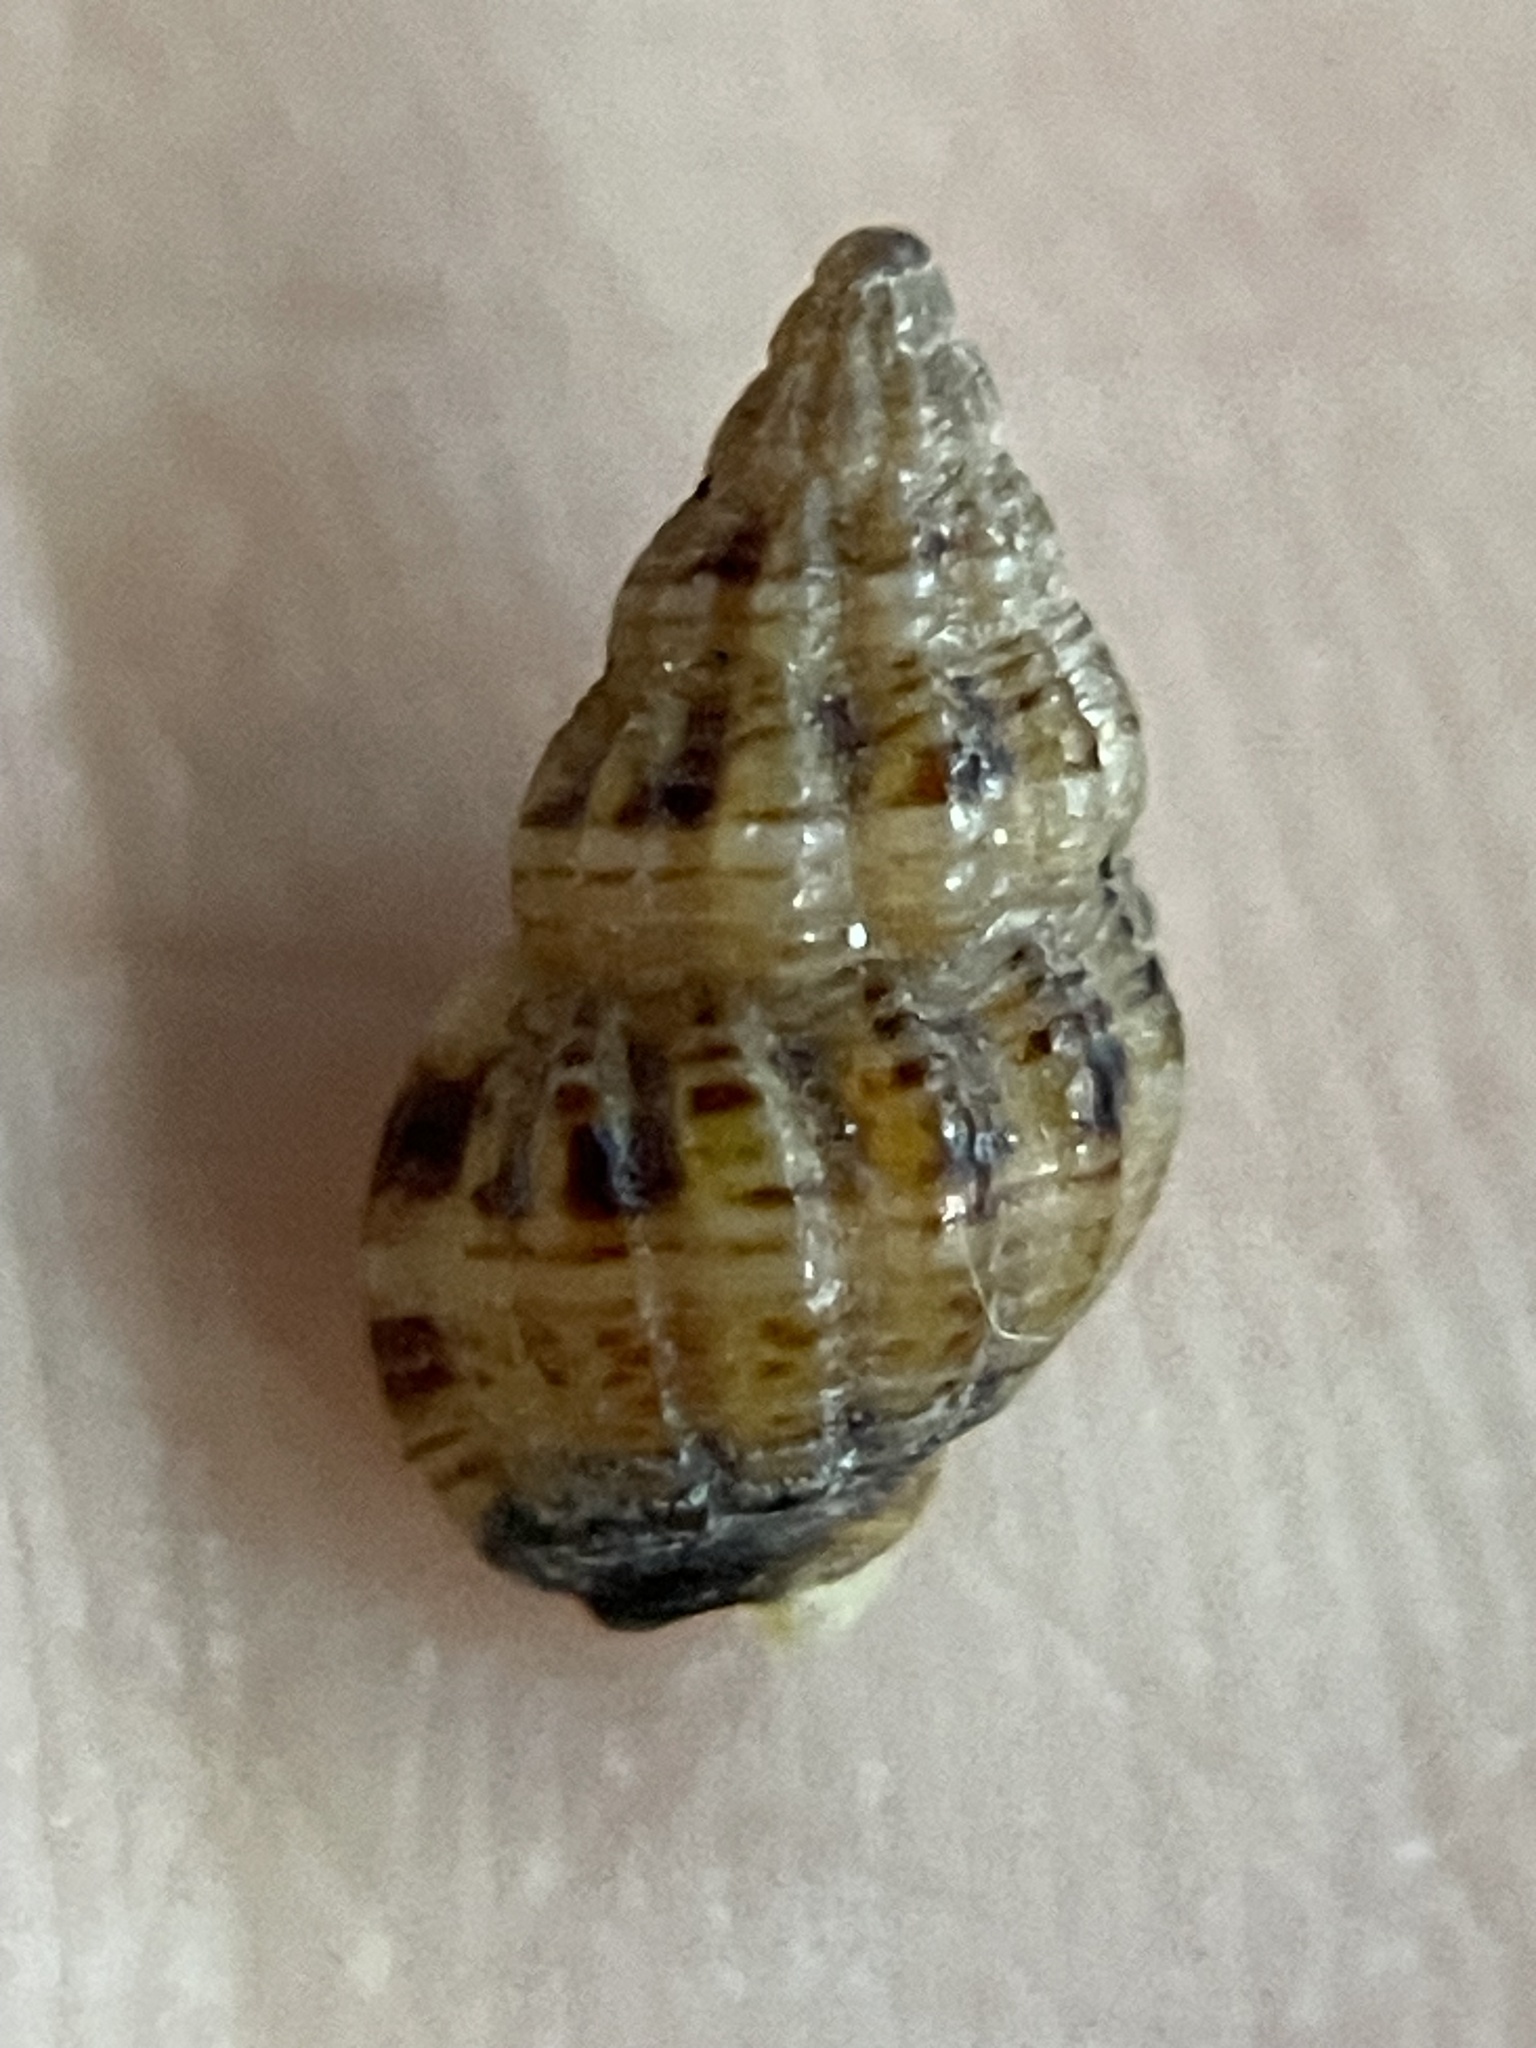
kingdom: Animalia
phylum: Mollusca
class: Gastropoda
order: Neogastropoda
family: Nassariidae
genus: Tritia
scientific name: Tritia incrassata
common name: Thick-lipped dog whelk
